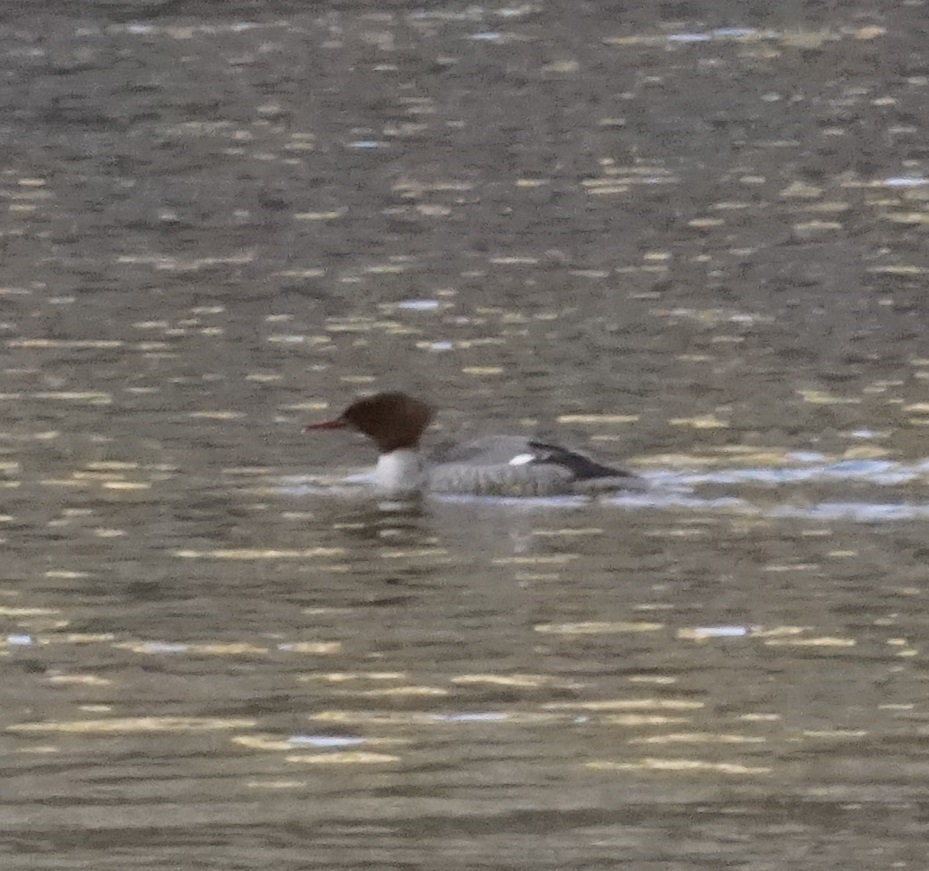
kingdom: Animalia
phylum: Chordata
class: Aves
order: Anseriformes
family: Anatidae
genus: Mergus
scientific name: Mergus merganser
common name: Common merganser
